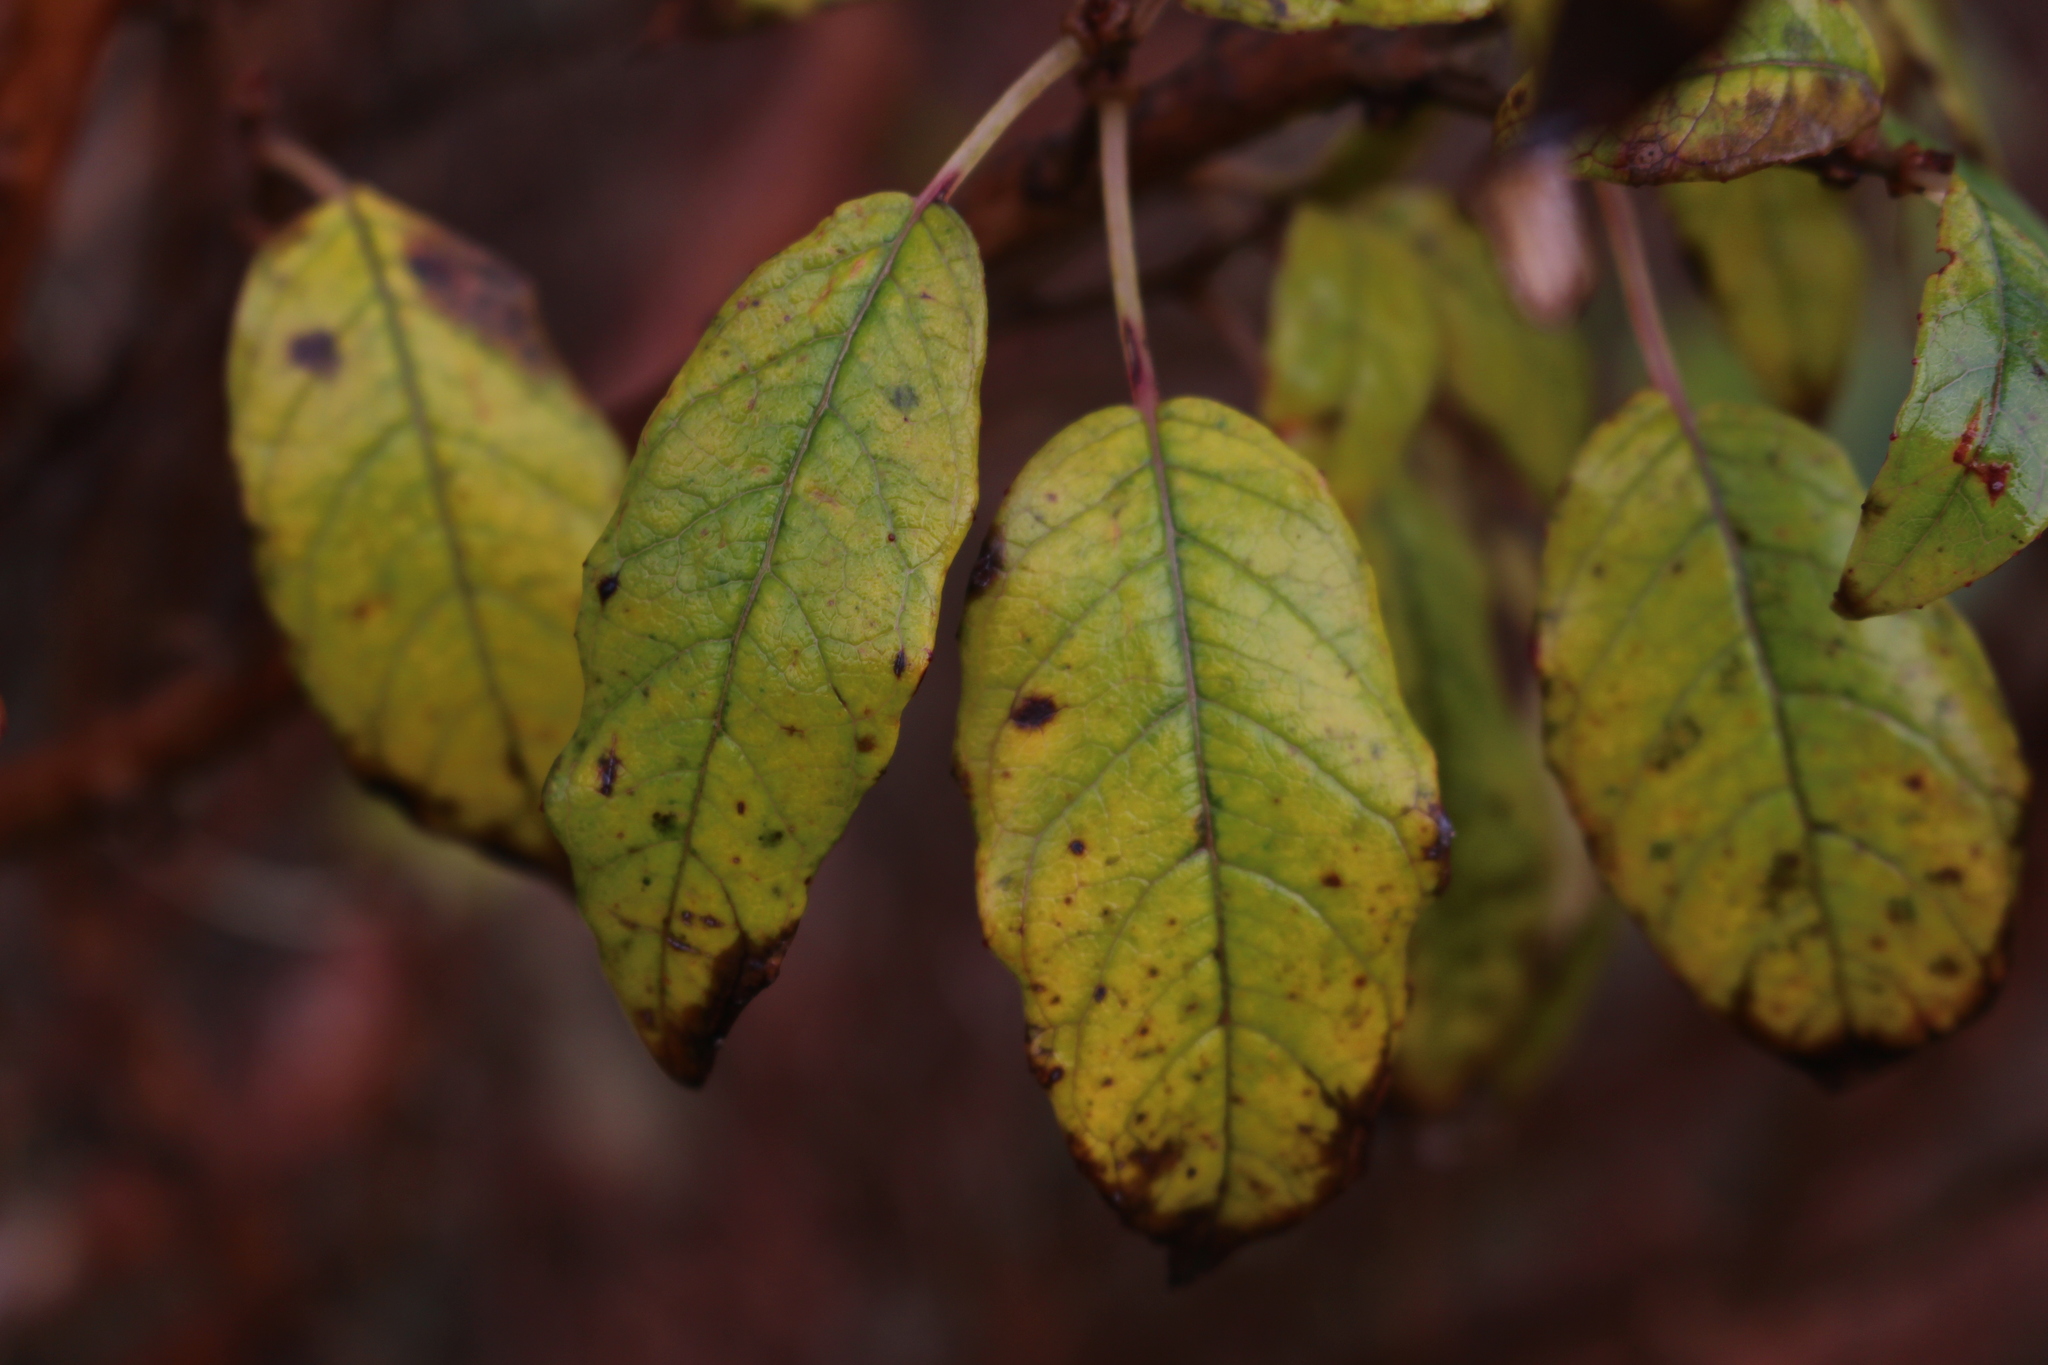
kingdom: Plantae
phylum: Tracheophyta
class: Magnoliopsida
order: Myrtales
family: Onagraceae
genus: Fuchsia
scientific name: Fuchsia excorticata
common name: Tree fuchsia
